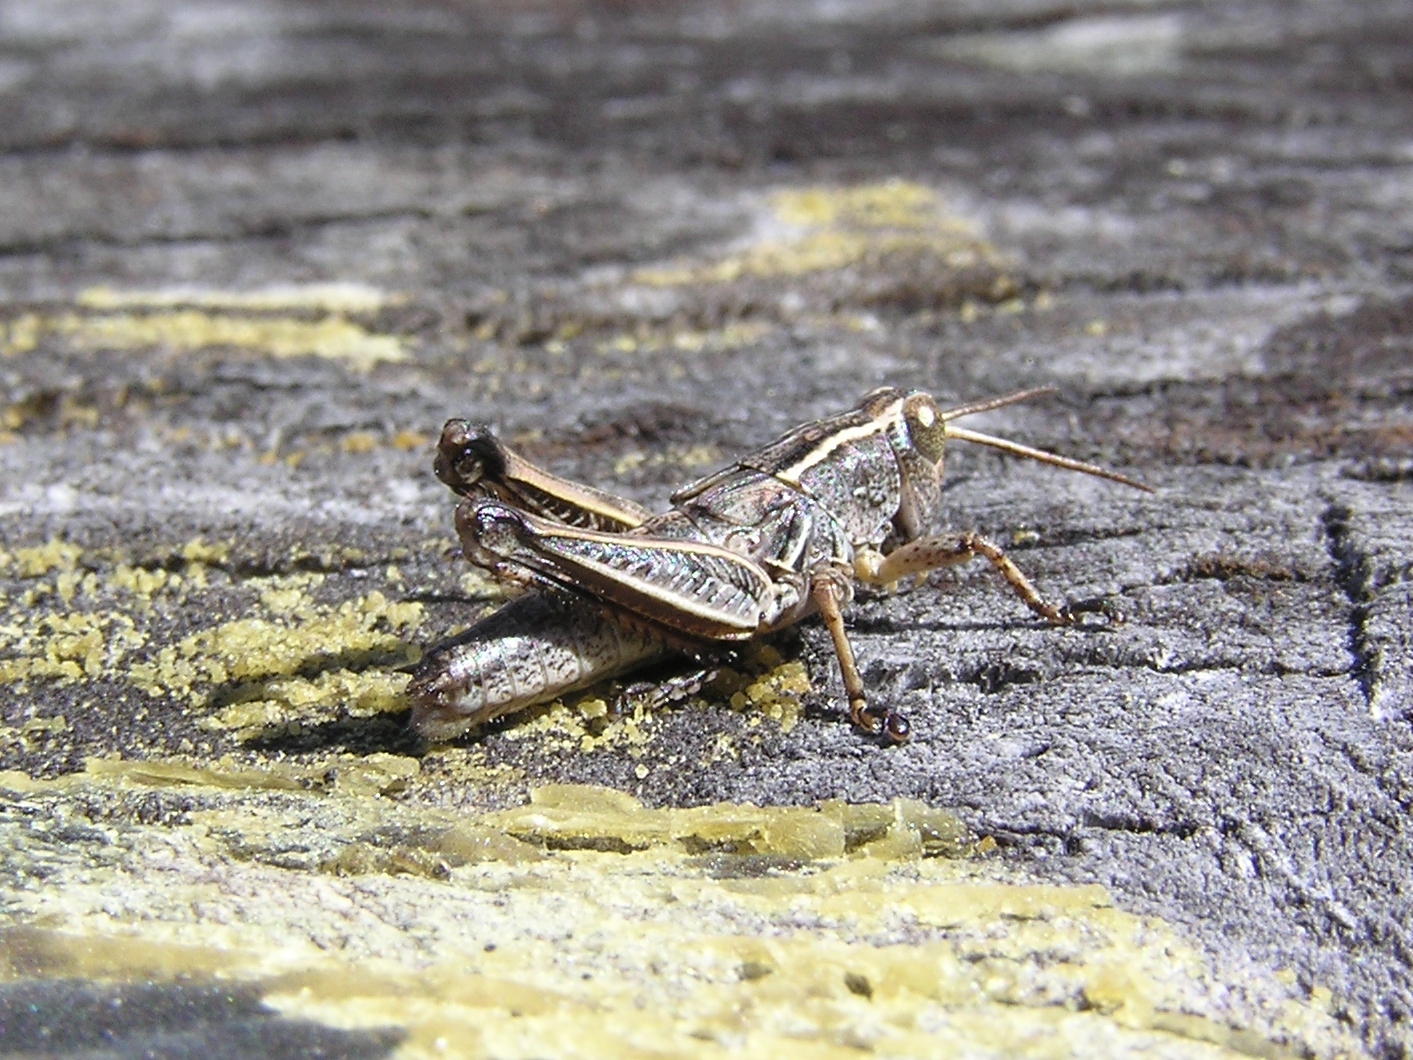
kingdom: Animalia
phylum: Arthropoda
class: Insecta
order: Orthoptera
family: Acrididae
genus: Phaulacridium
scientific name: Phaulacridium marginale
